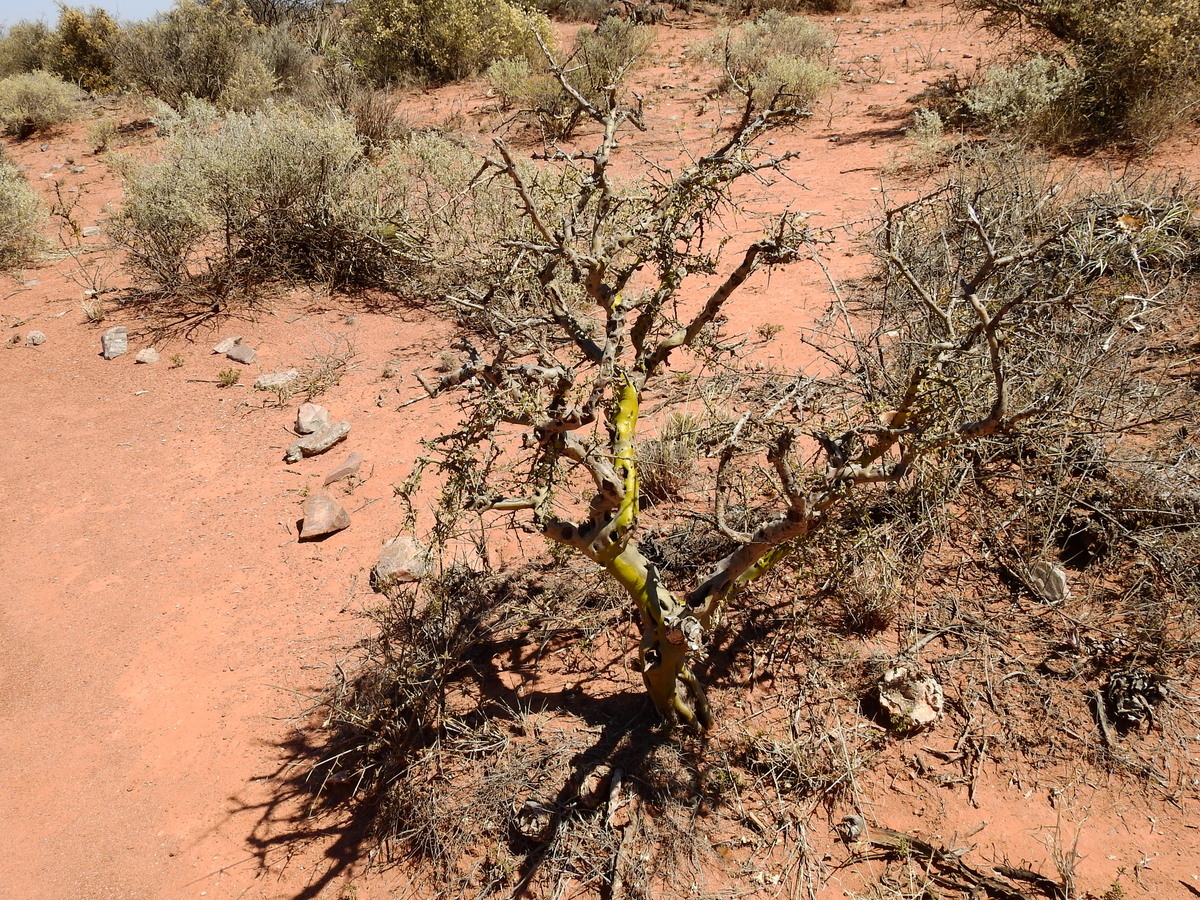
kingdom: Plantae
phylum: Tracheophyta
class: Magnoliopsida
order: Fabales
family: Fabaceae
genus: Geoffroea
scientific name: Geoffroea decorticans
